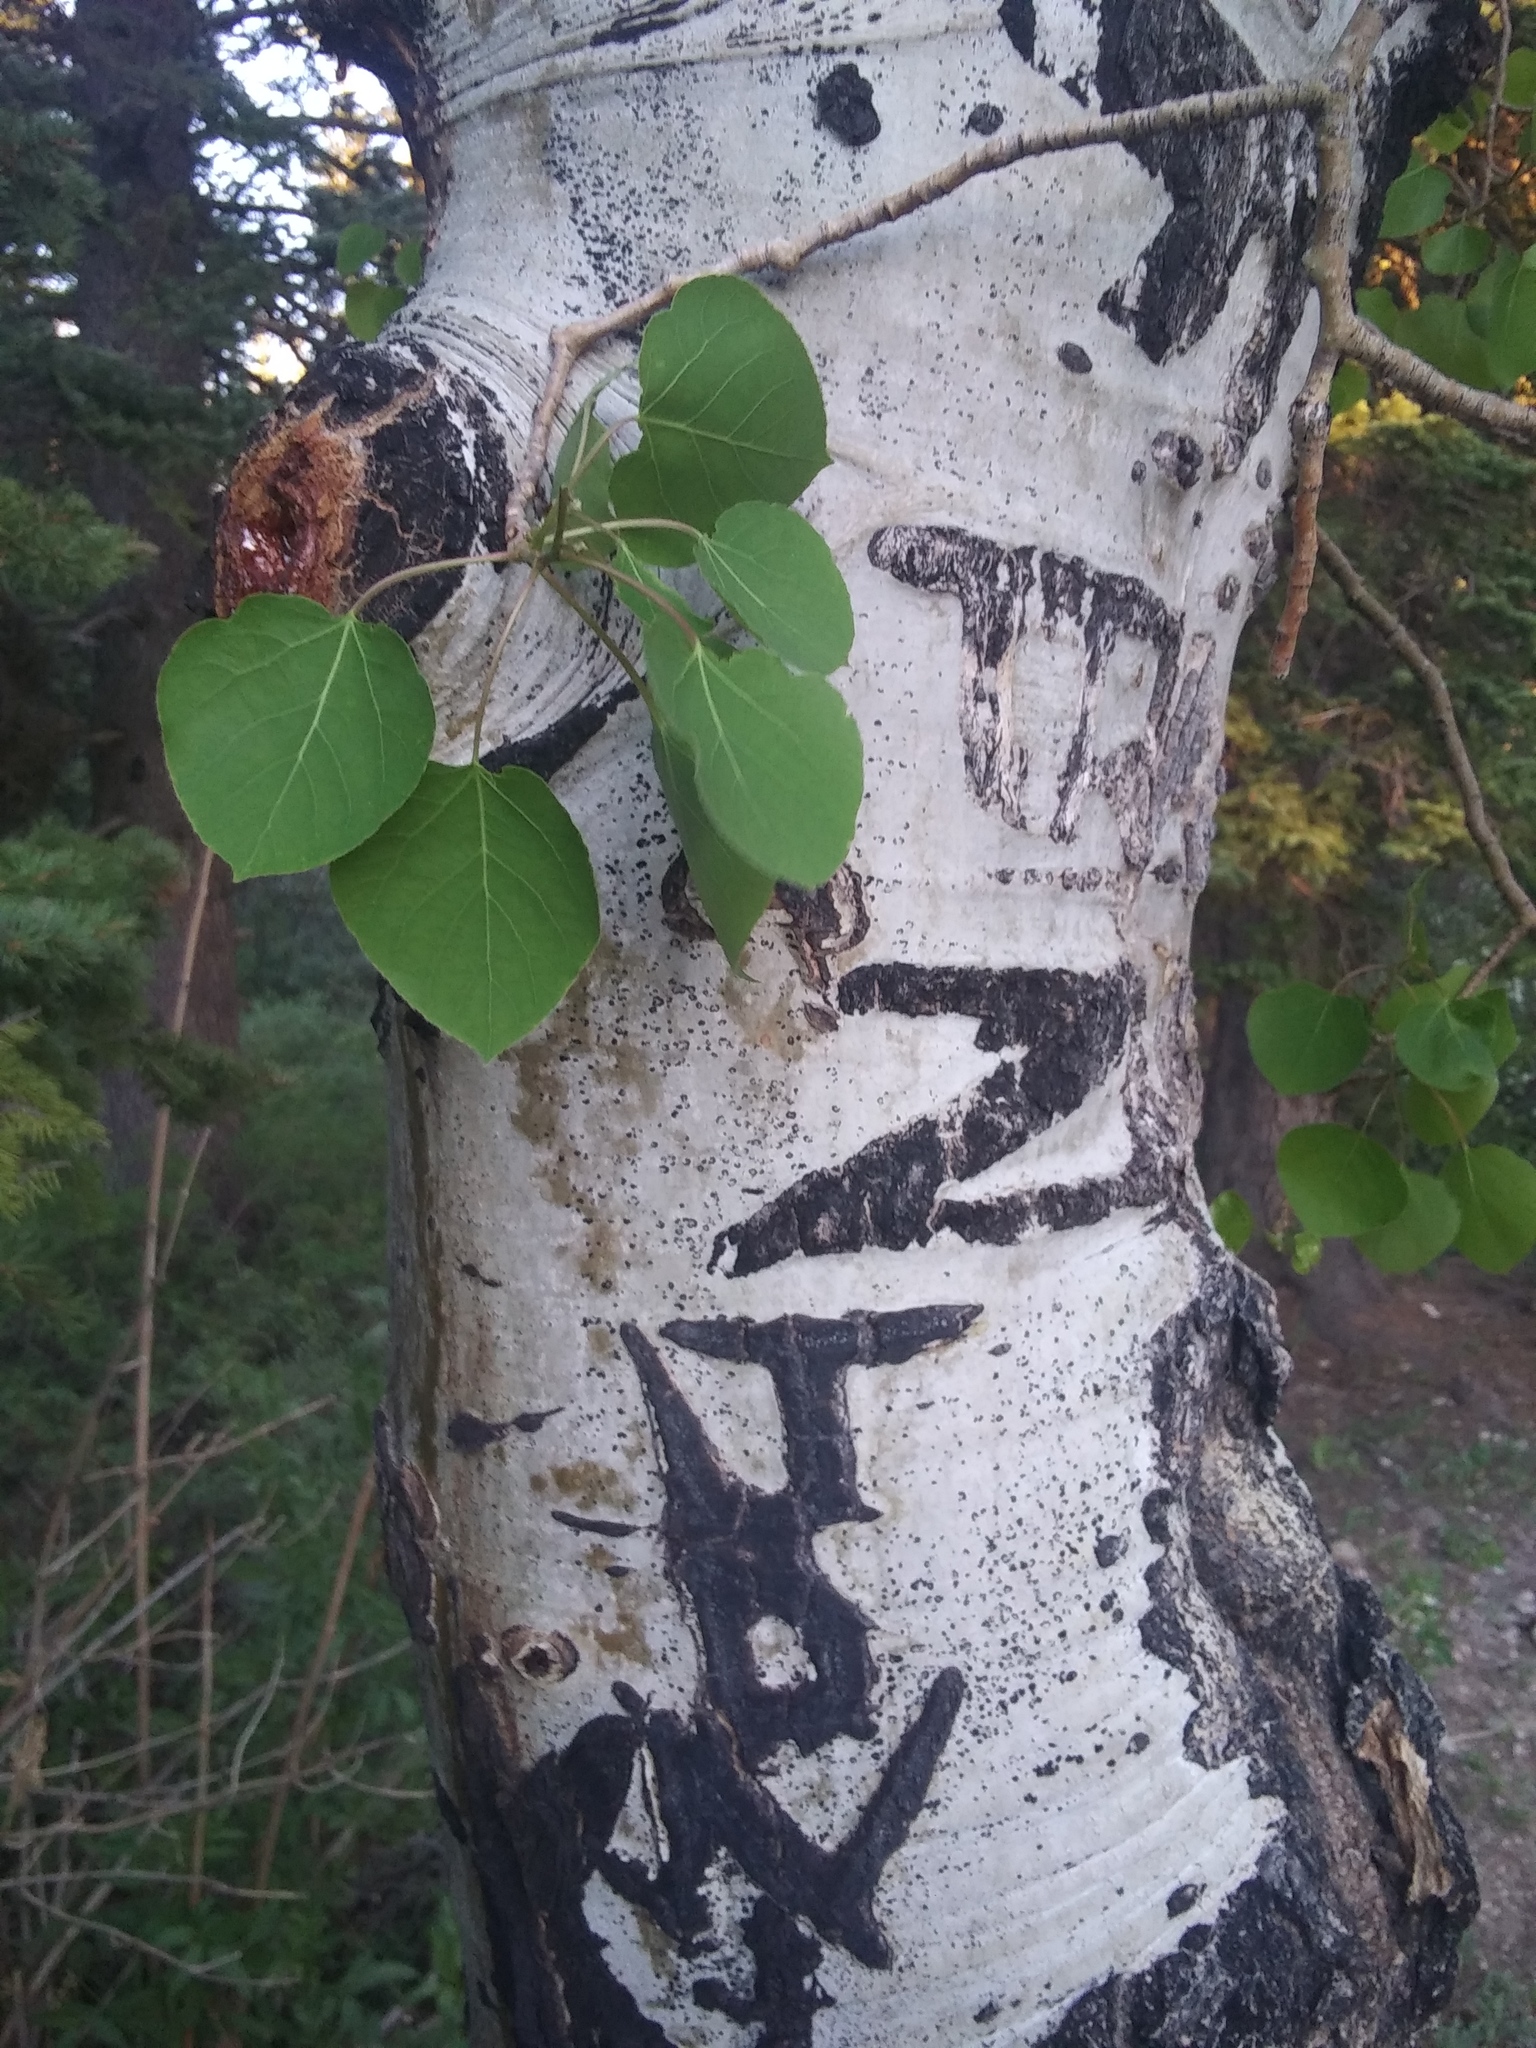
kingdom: Plantae
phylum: Tracheophyta
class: Magnoliopsida
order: Malpighiales
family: Salicaceae
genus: Populus
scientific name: Populus tremuloides
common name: Quaking aspen
